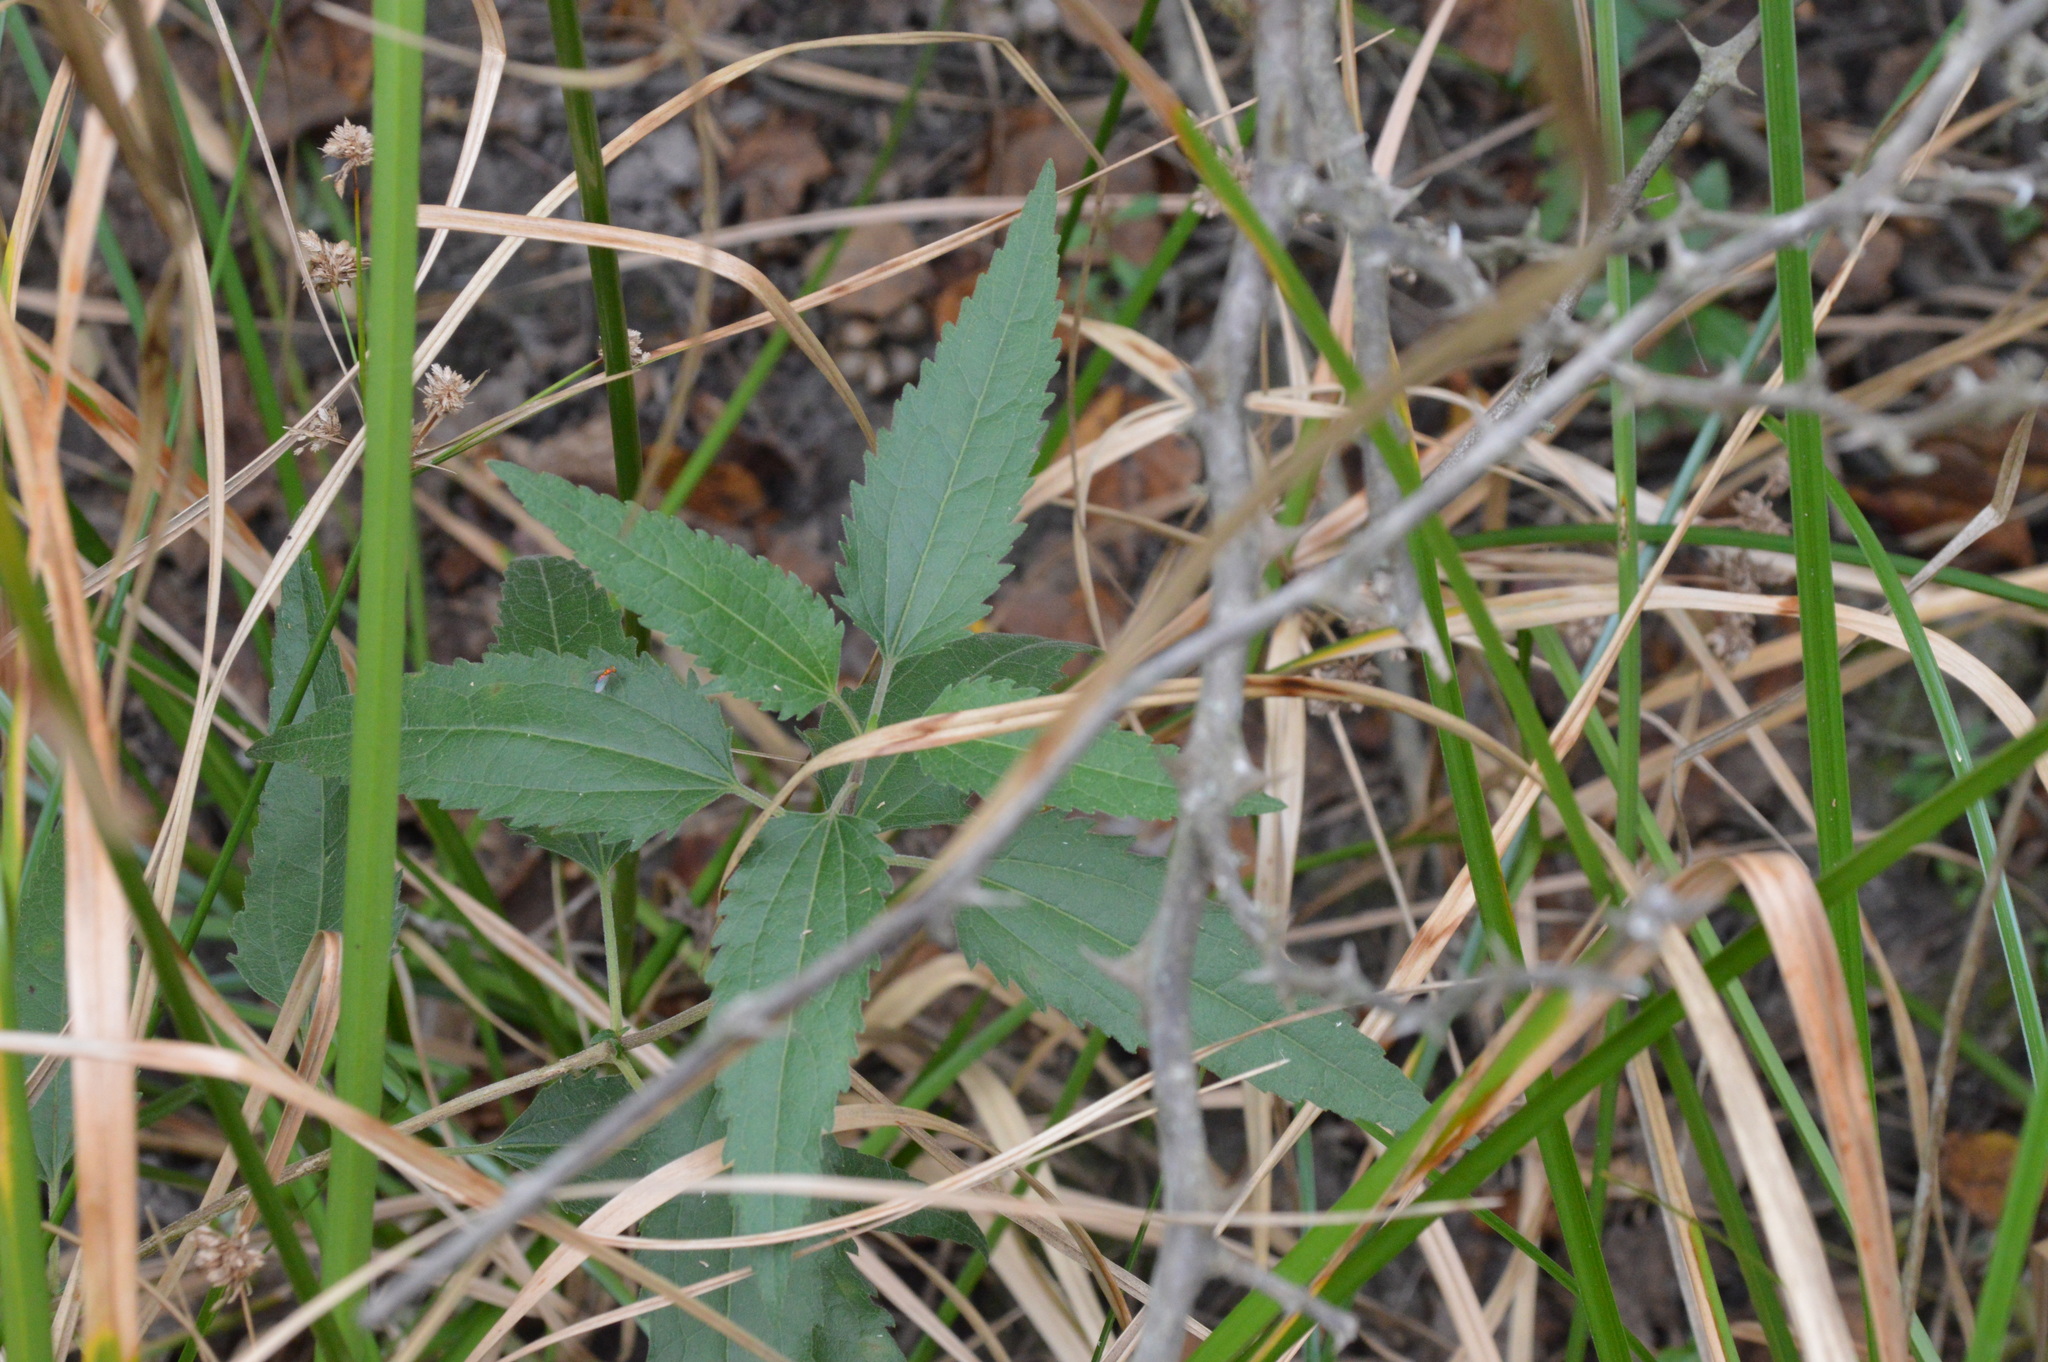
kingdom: Plantae
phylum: Tracheophyta
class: Magnoliopsida
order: Asterales
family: Asteraceae
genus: Eupatorium
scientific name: Eupatorium serotinum
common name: Late boneset
